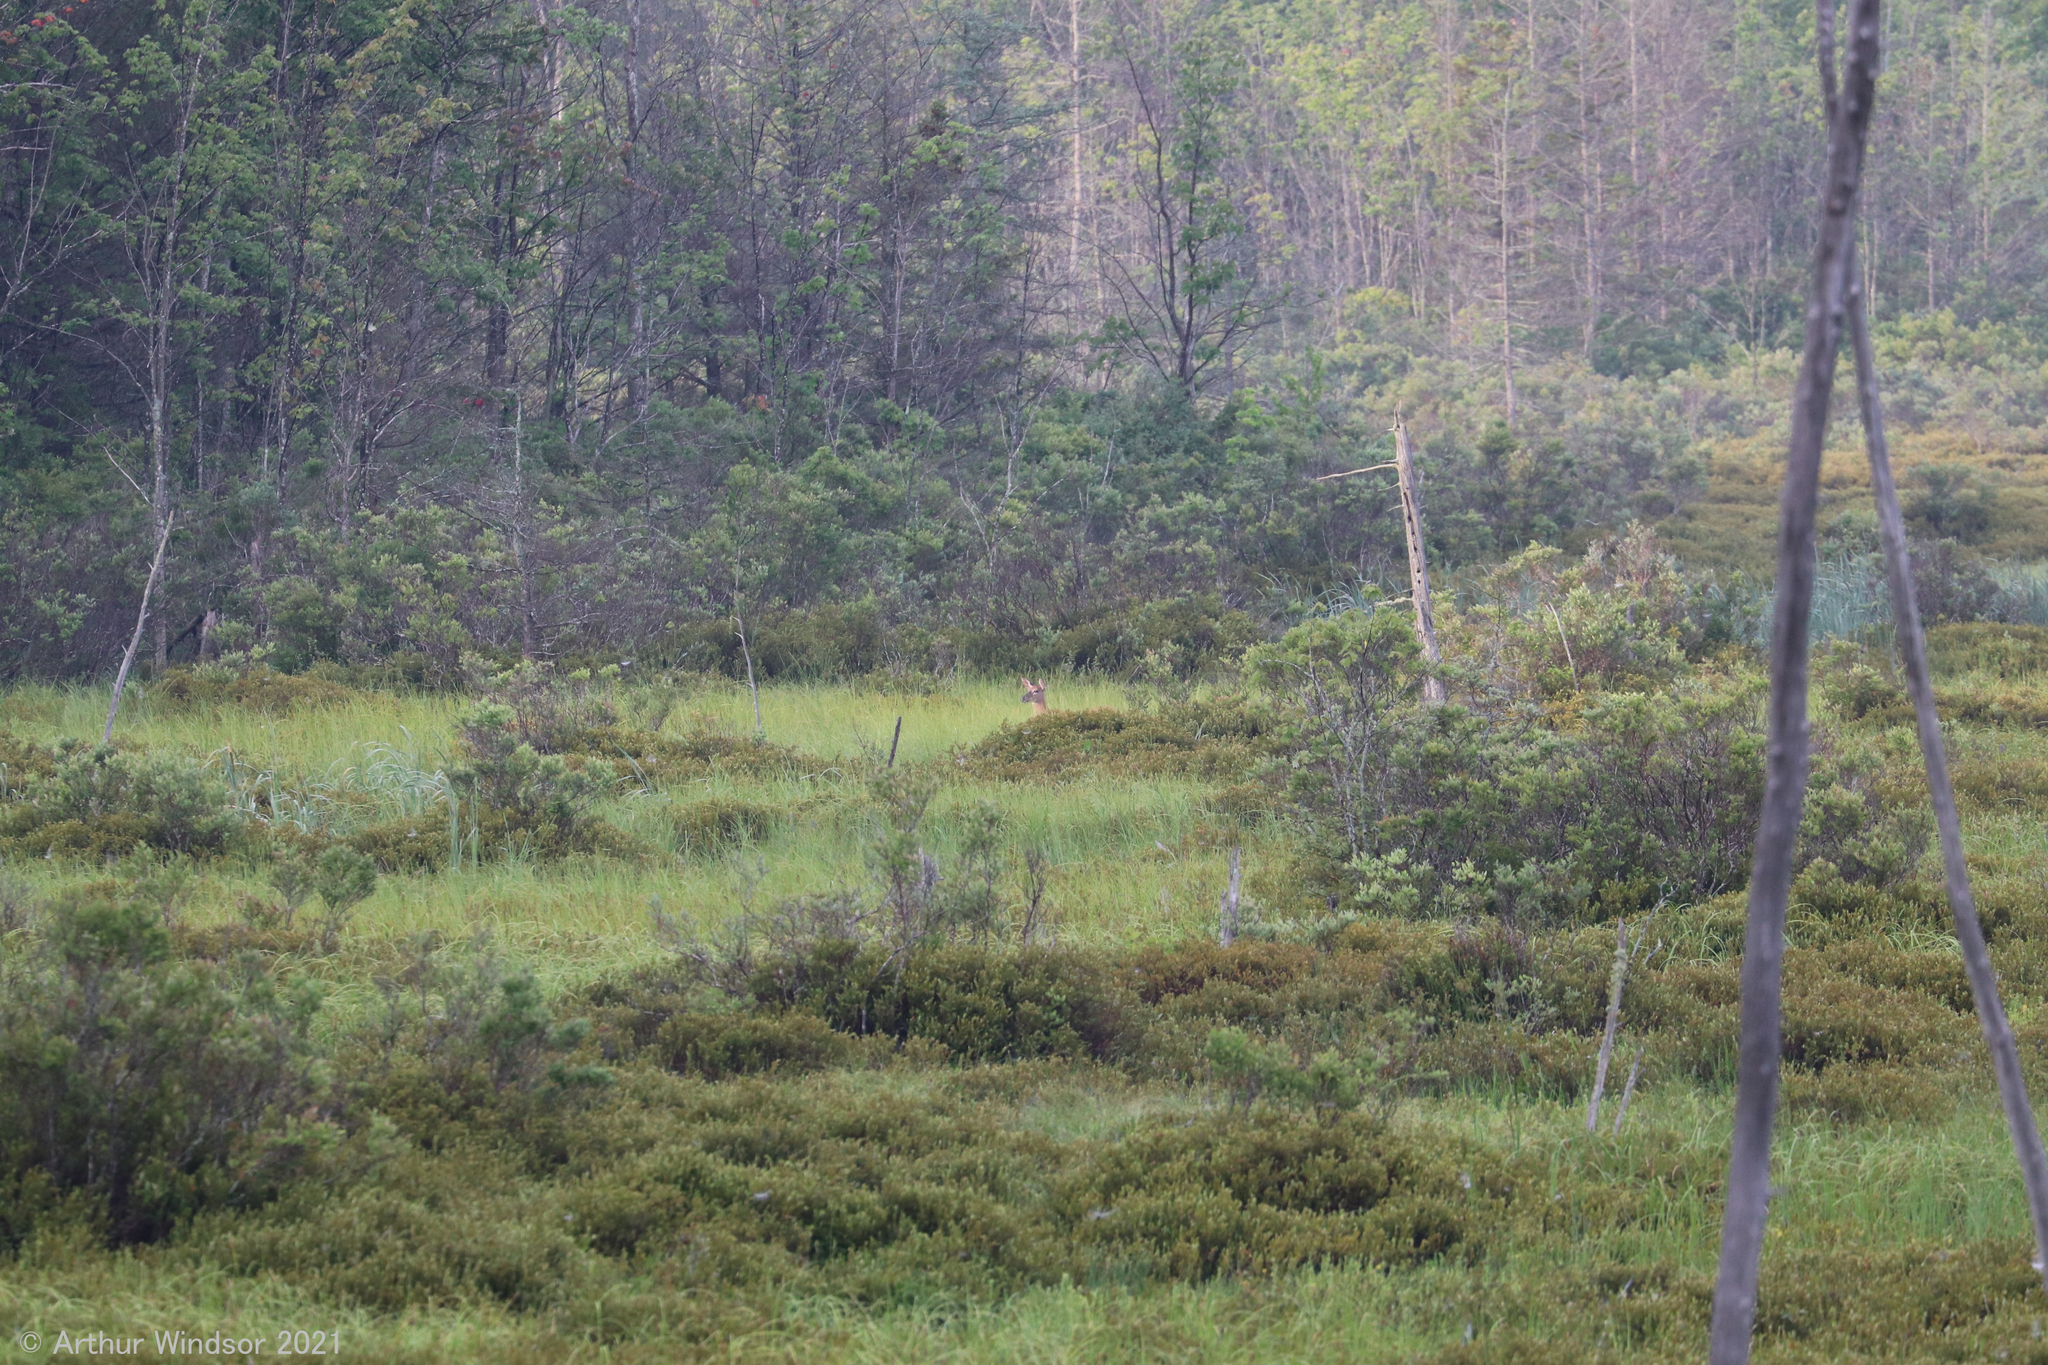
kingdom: Animalia
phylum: Chordata
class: Mammalia
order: Artiodactyla
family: Cervidae
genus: Odocoileus
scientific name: Odocoileus virginianus
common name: White-tailed deer
